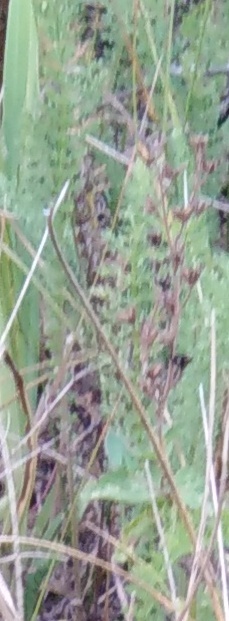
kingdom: Plantae
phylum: Tracheophyta
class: Magnoliopsida
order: Rosales
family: Rosaceae
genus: Filipendula
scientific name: Filipendula vulgaris
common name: Dropwort
